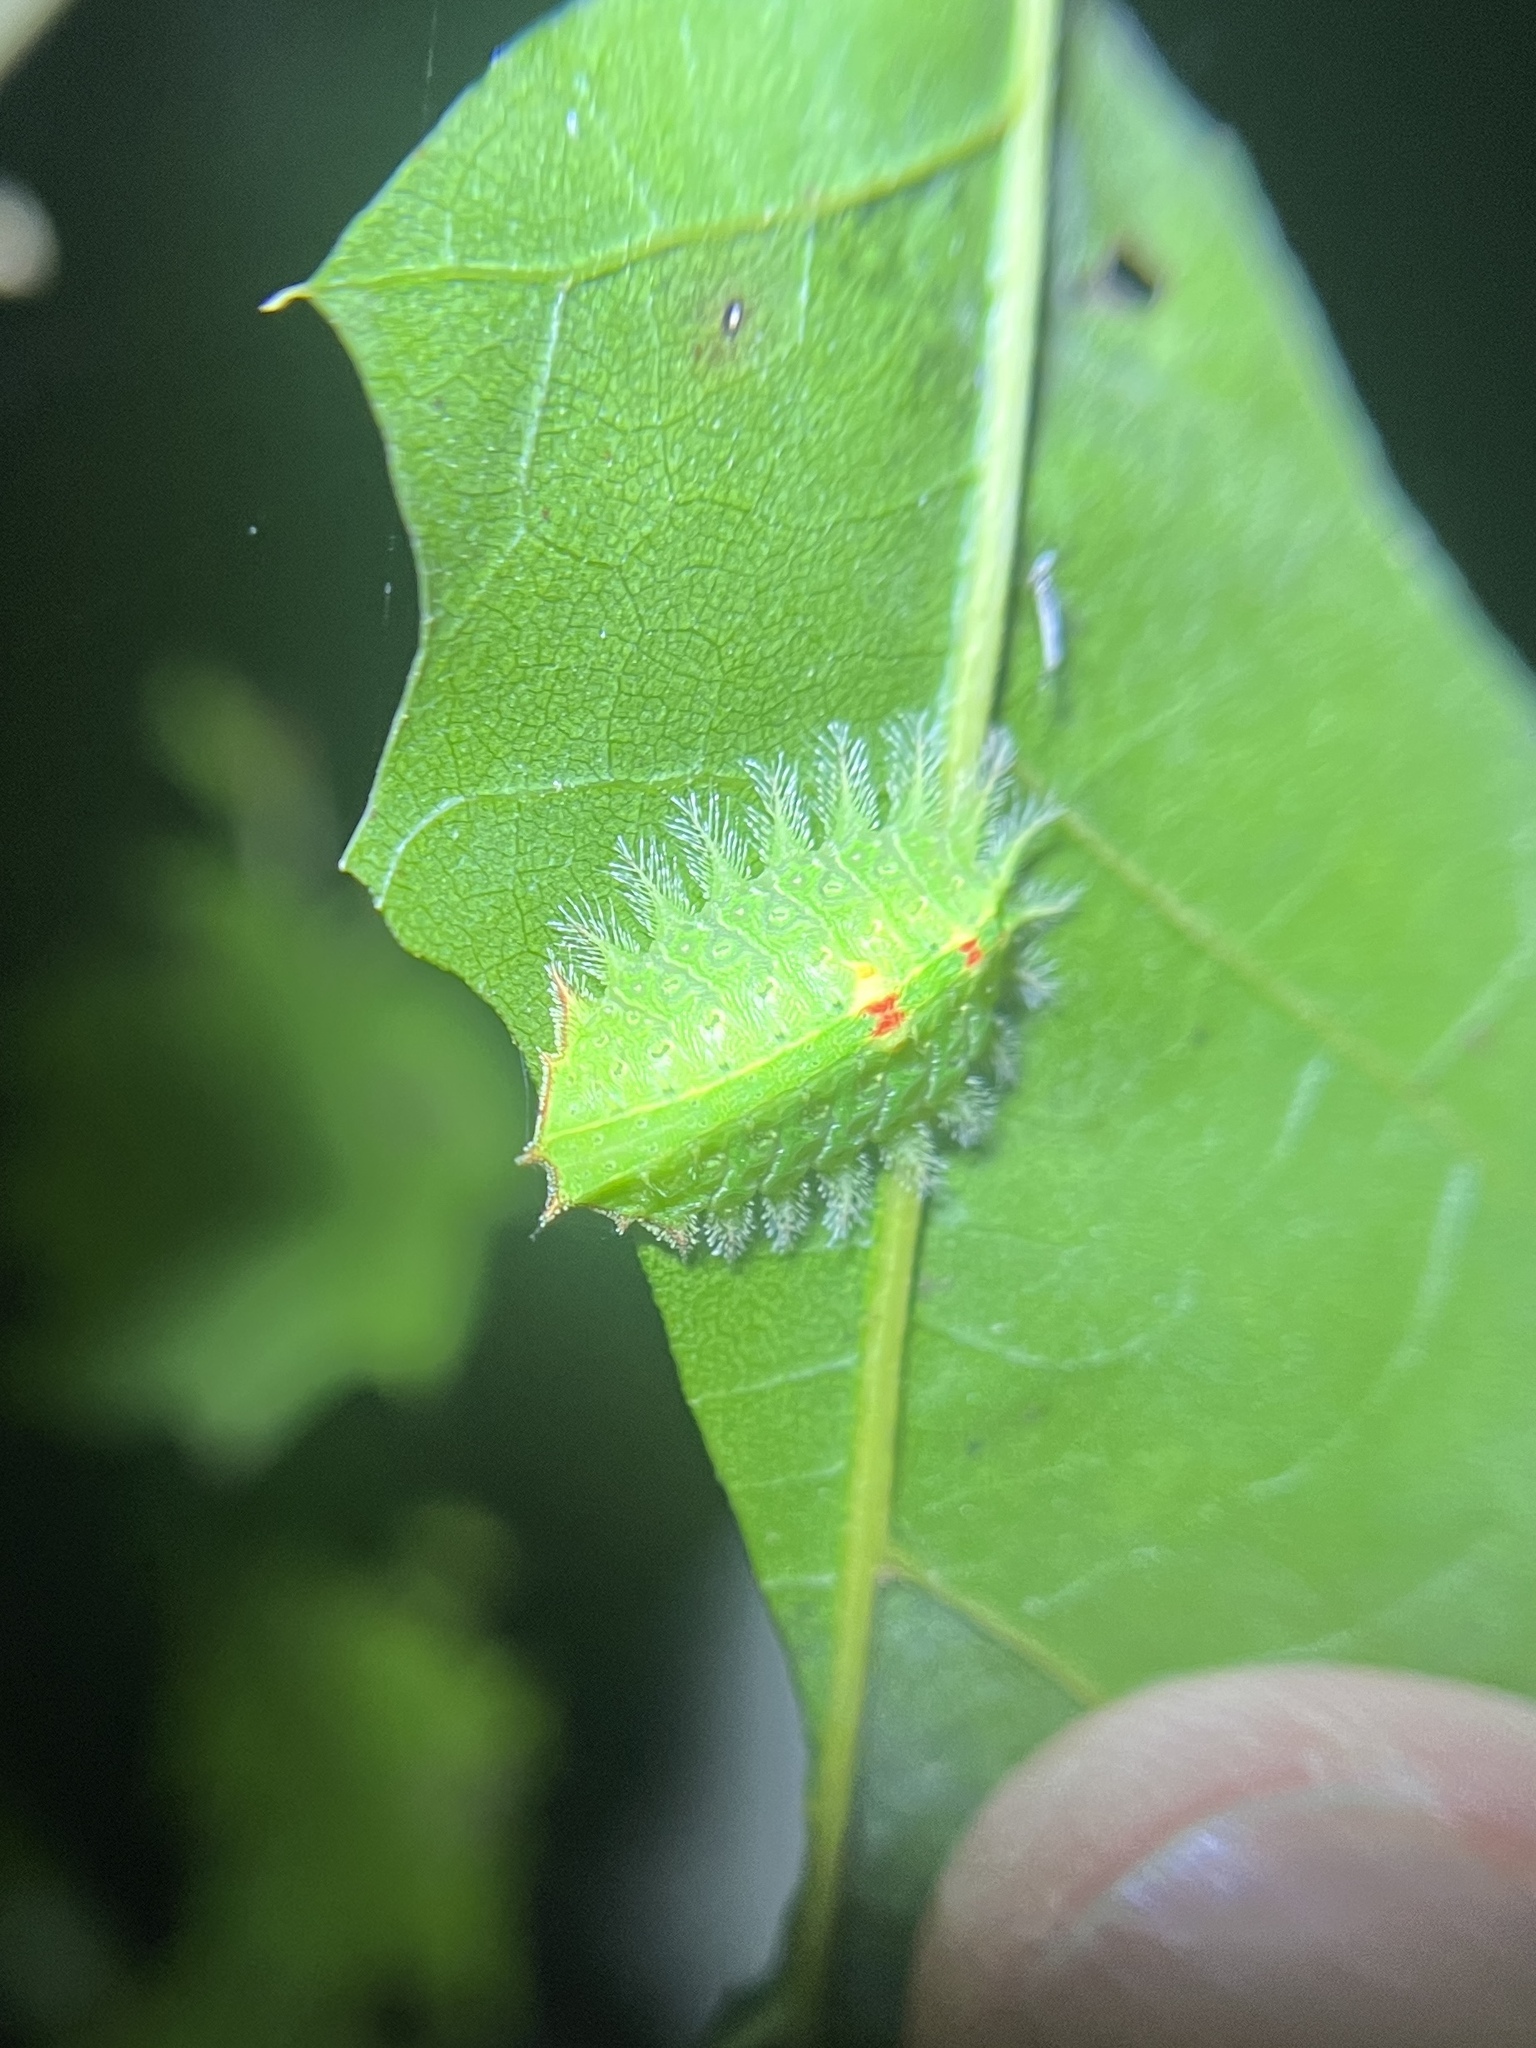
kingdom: Animalia
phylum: Arthropoda
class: Insecta
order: Lepidoptera
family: Limacodidae
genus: Isa
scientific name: Isa textula
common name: Crowned slug moth
